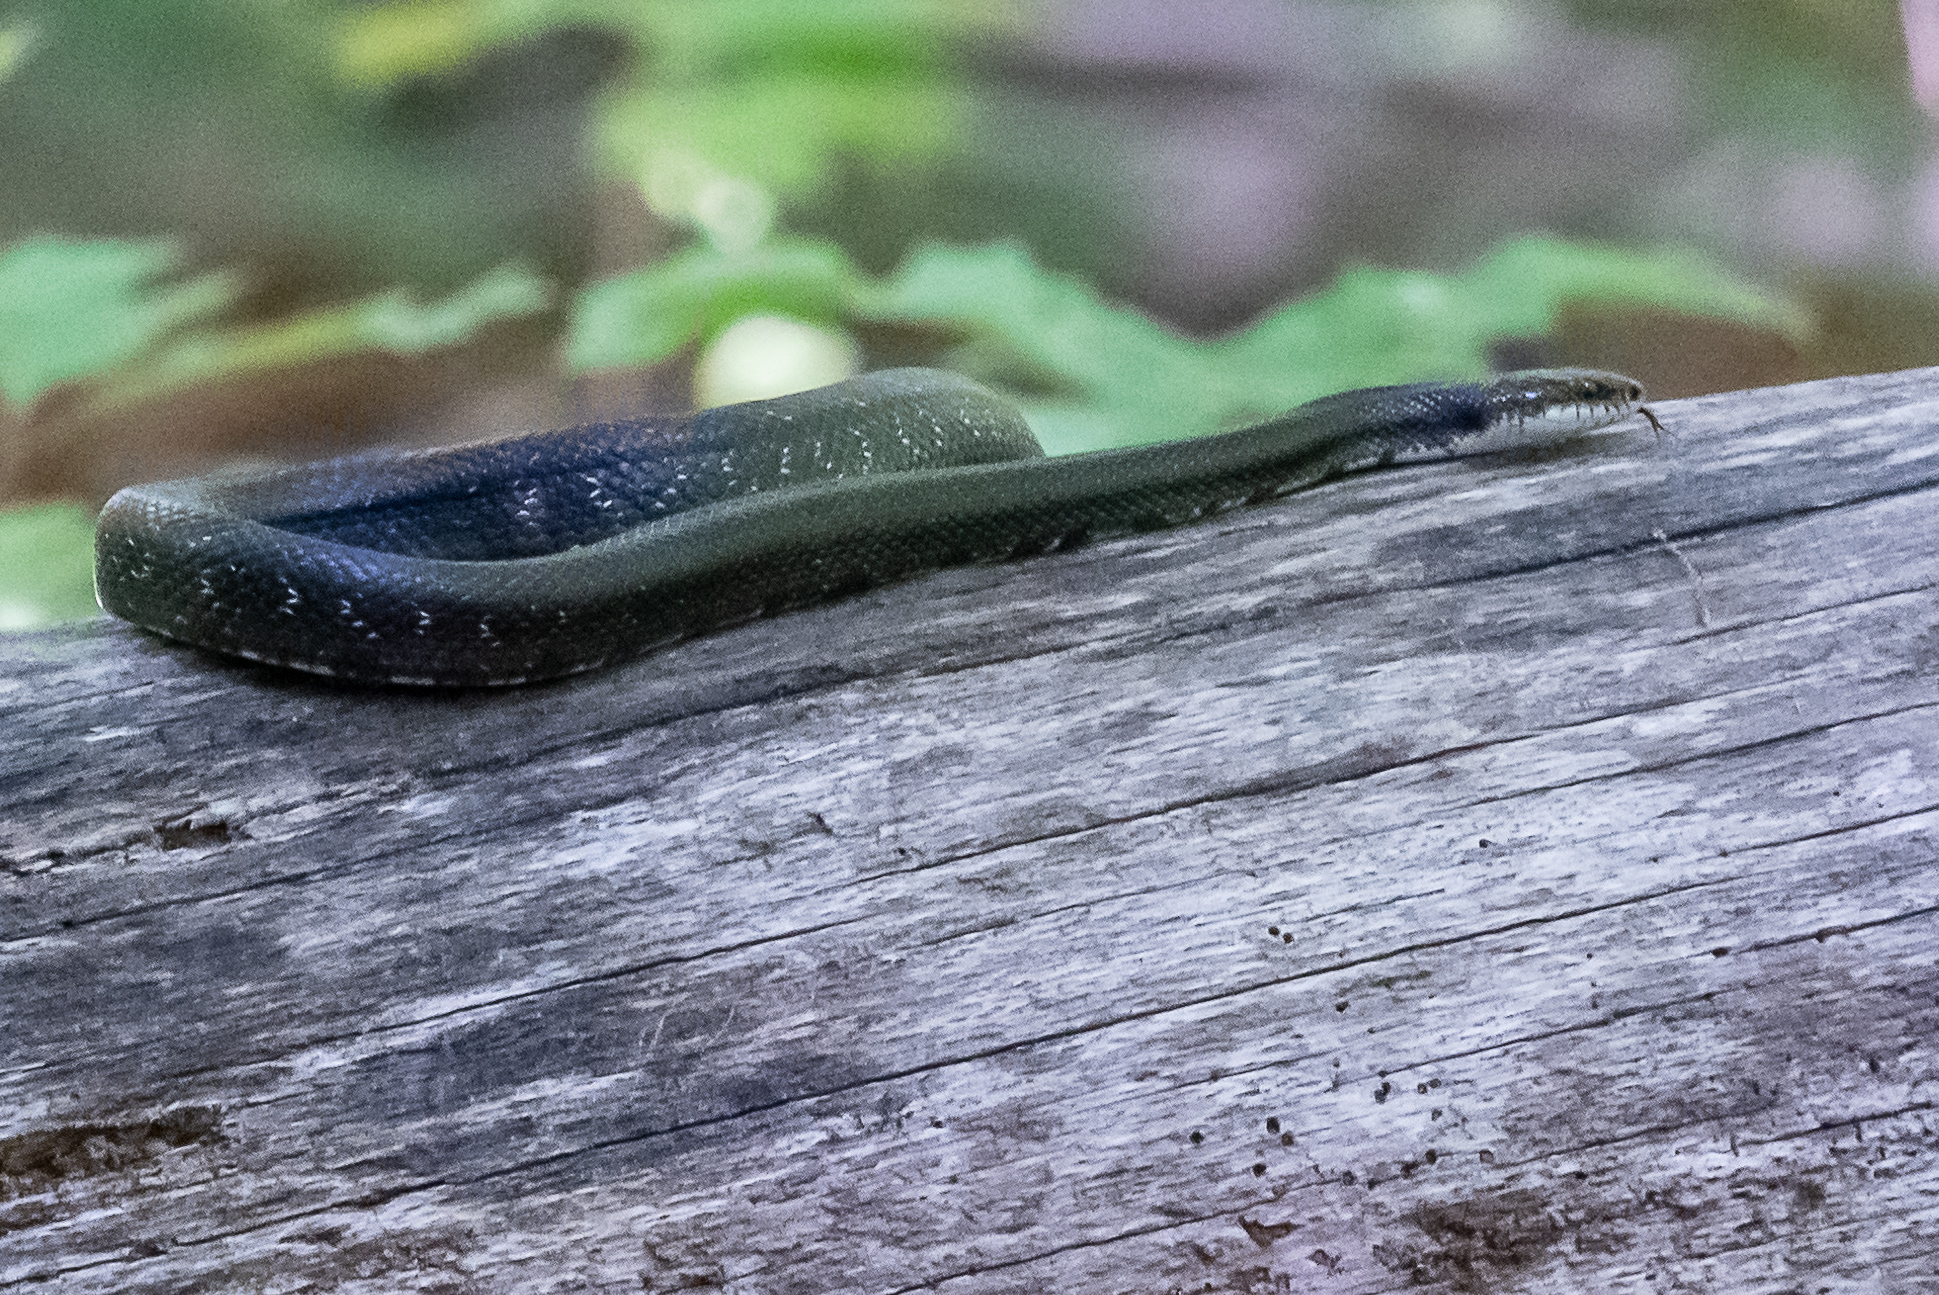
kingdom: Animalia
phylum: Chordata
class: Squamata
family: Colubridae
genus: Pantherophis
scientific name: Pantherophis alleghaniensis
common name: Eastern rat snake
